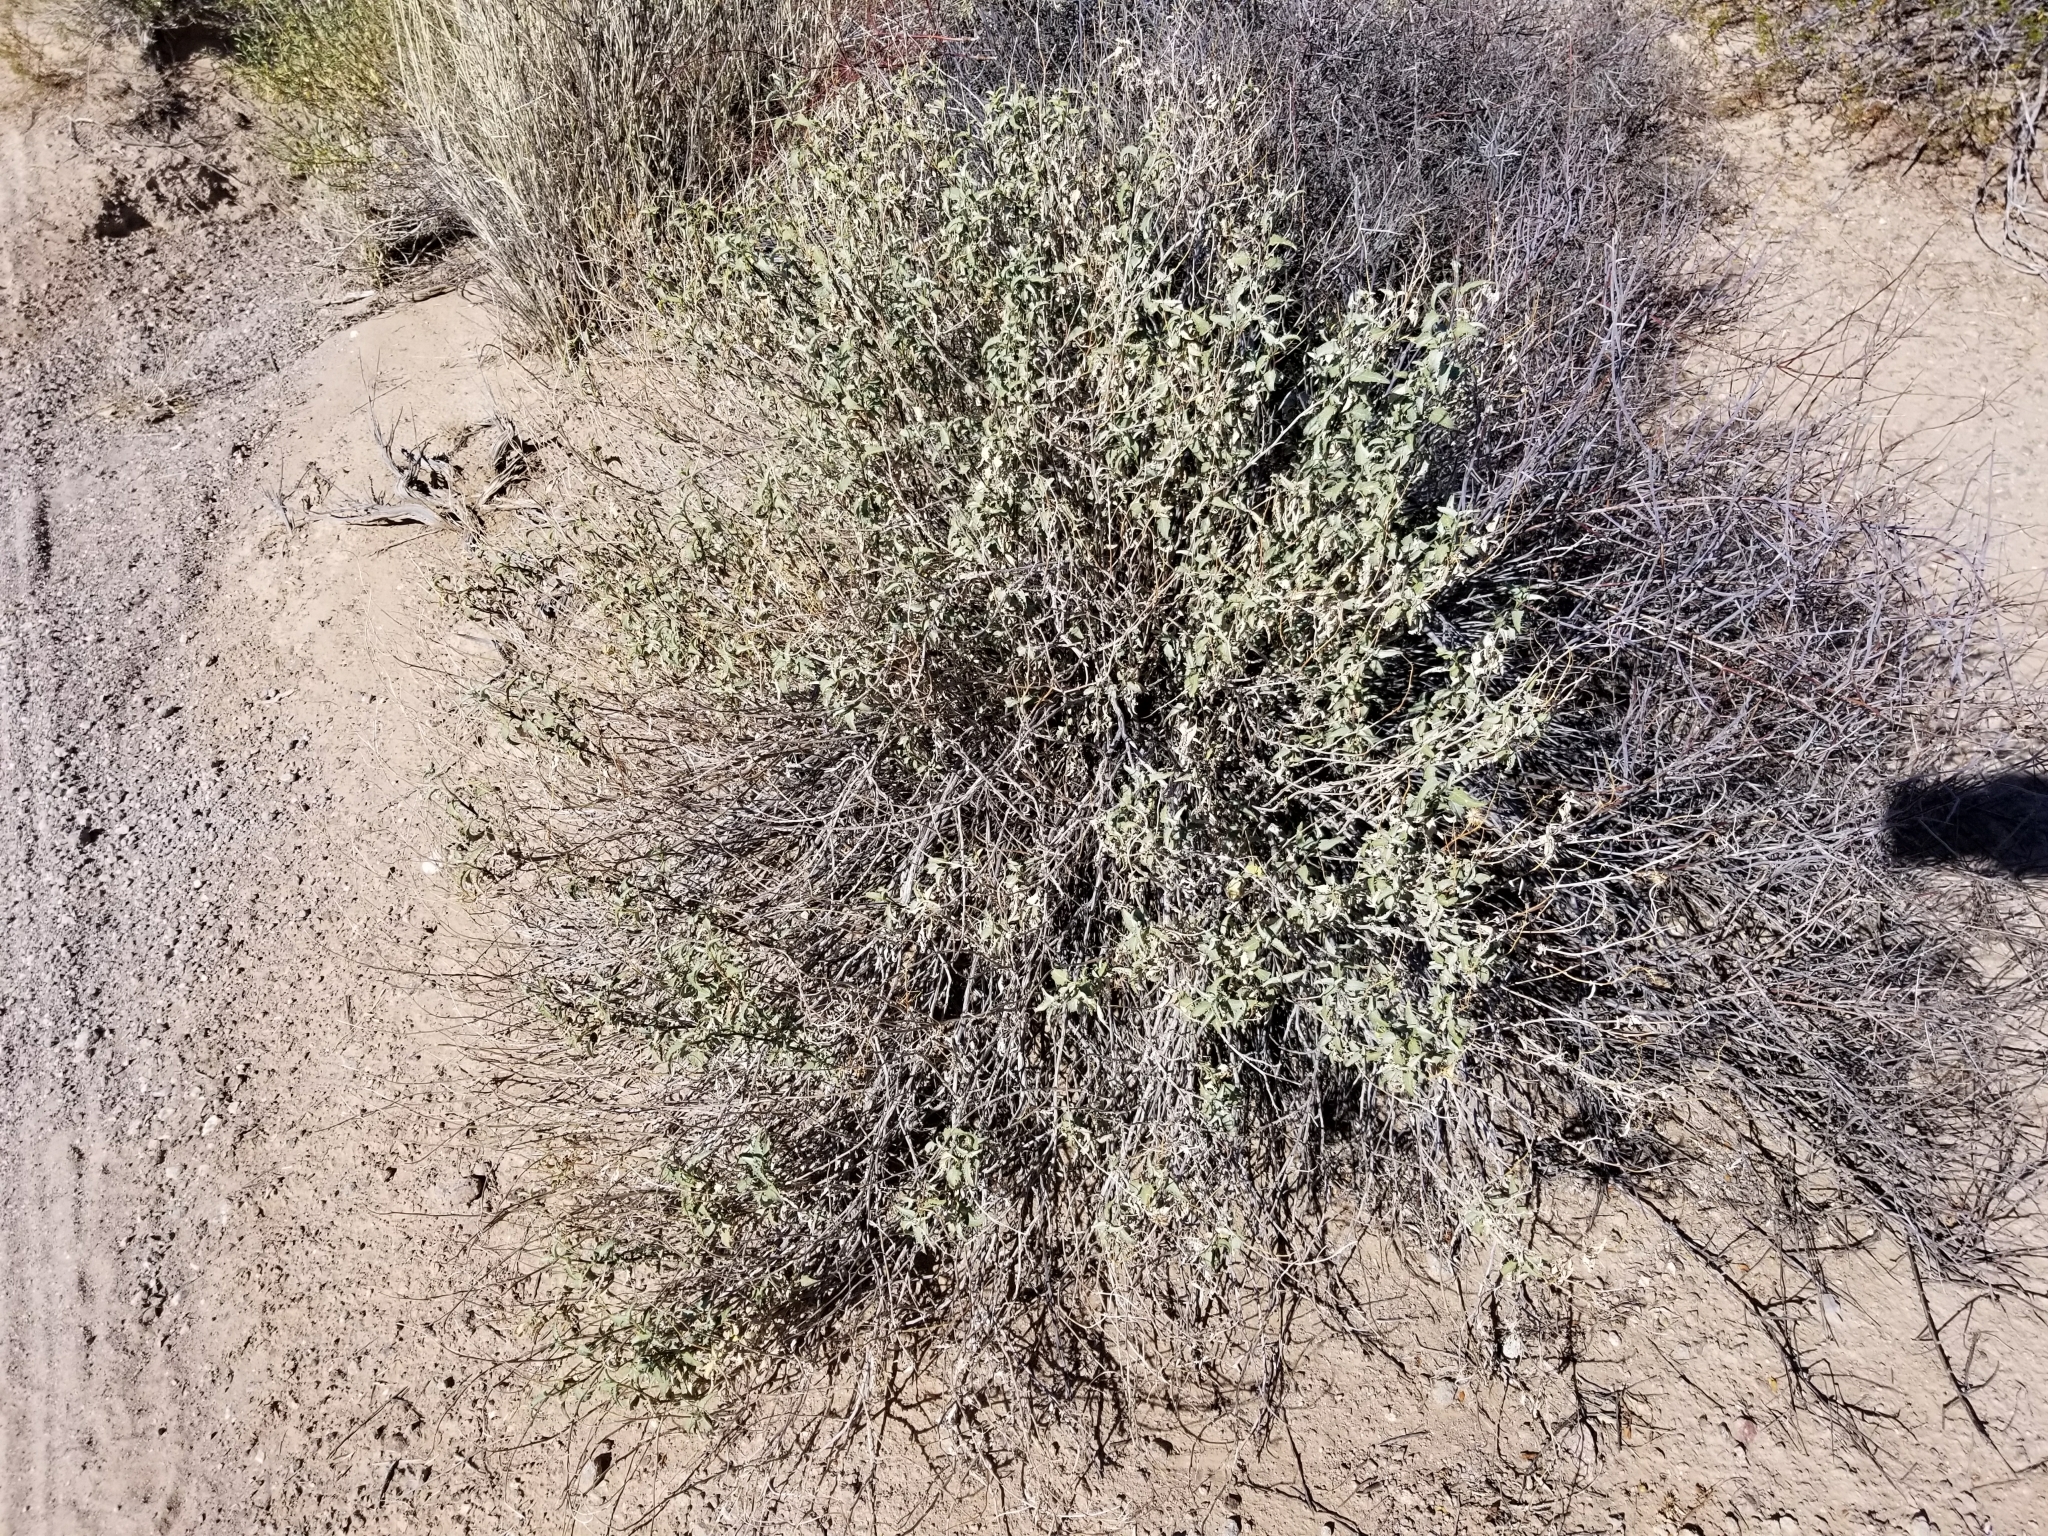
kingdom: Plantae
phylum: Tracheophyta
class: Magnoliopsida
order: Asterales
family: Asteraceae
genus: Ambrosia
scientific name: Ambrosia deltoidea
